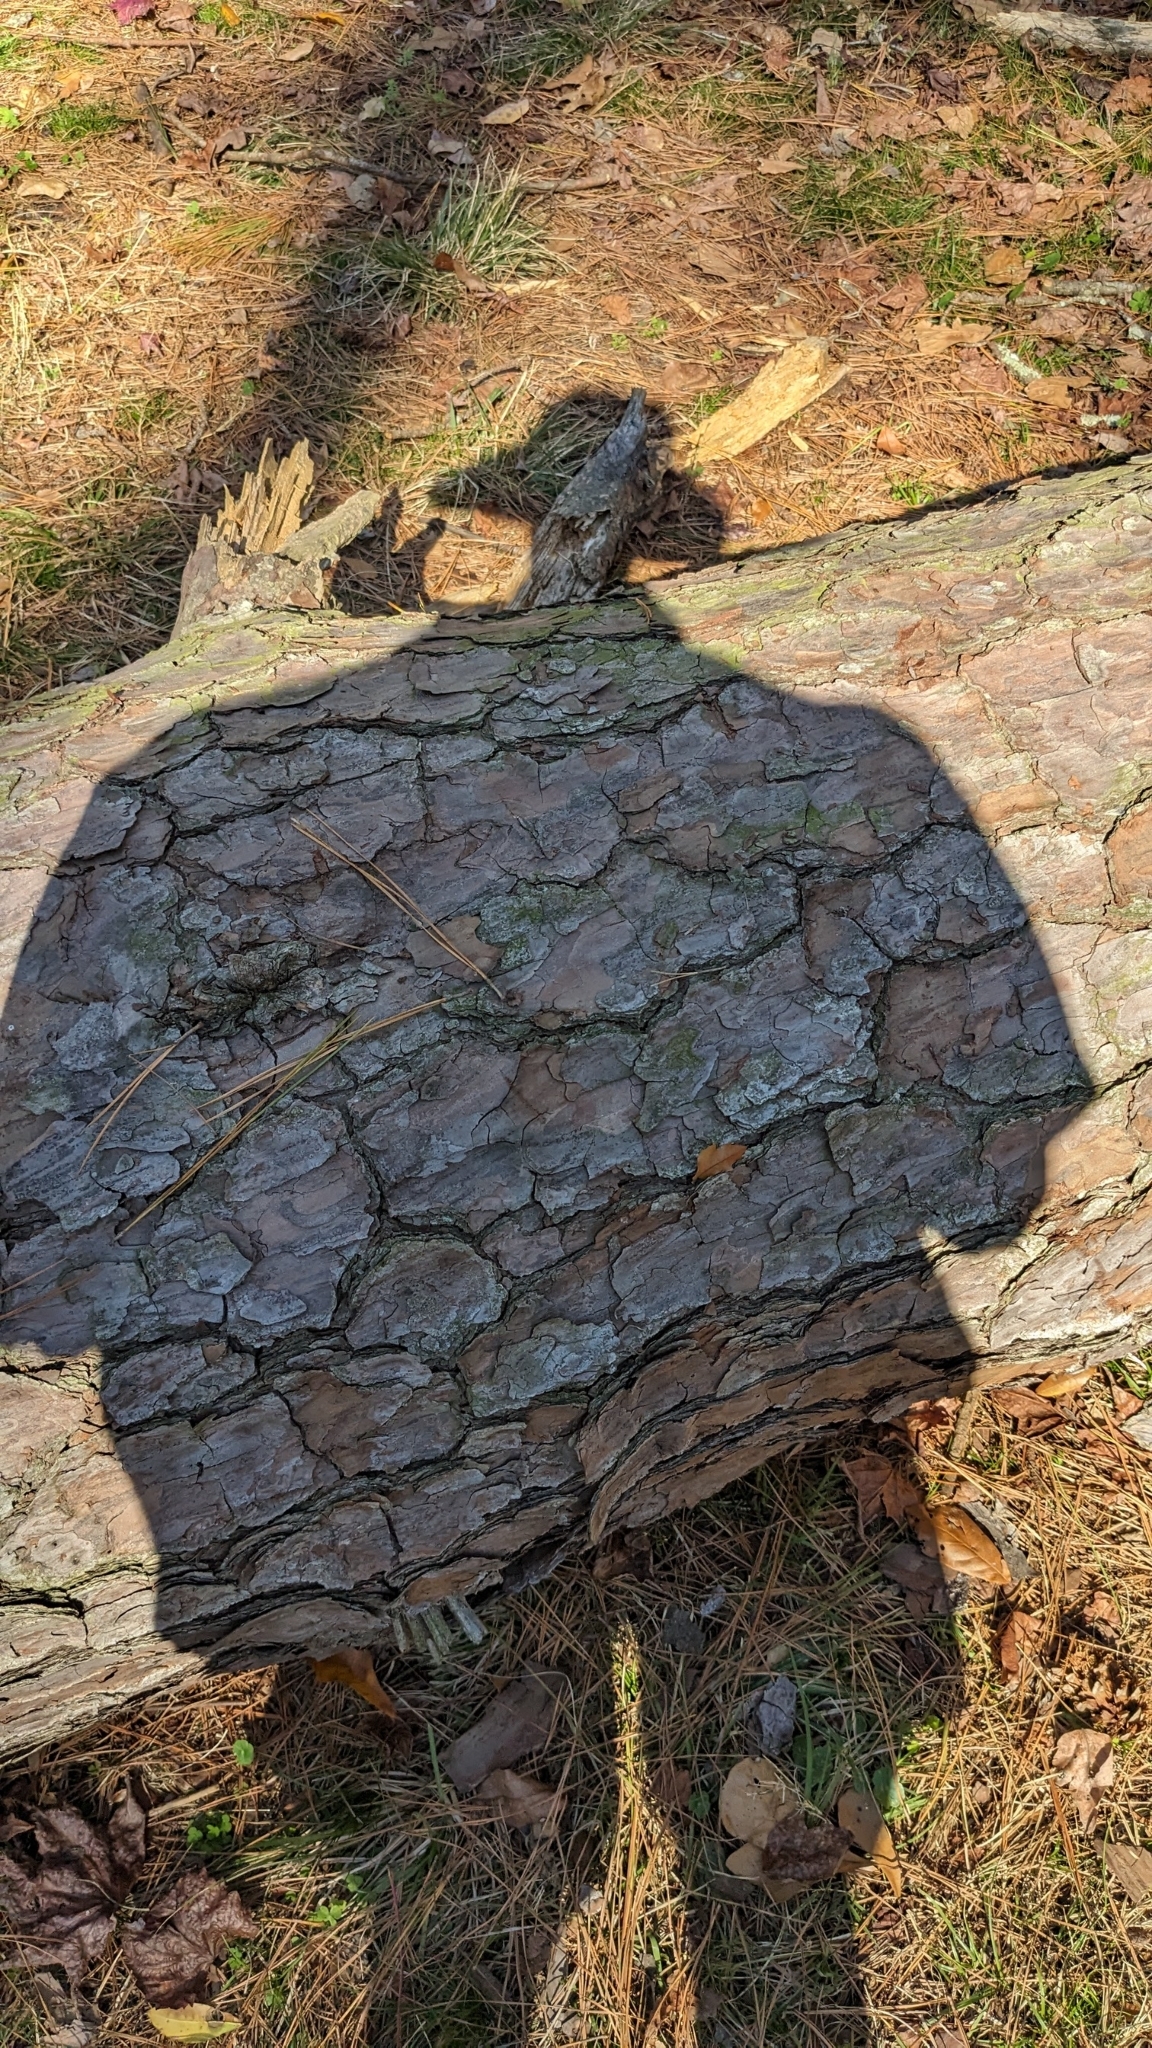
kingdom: Plantae
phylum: Tracheophyta
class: Pinopsida
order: Pinales
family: Pinaceae
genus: Pinus
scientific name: Pinus taeda
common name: Loblolly pine
